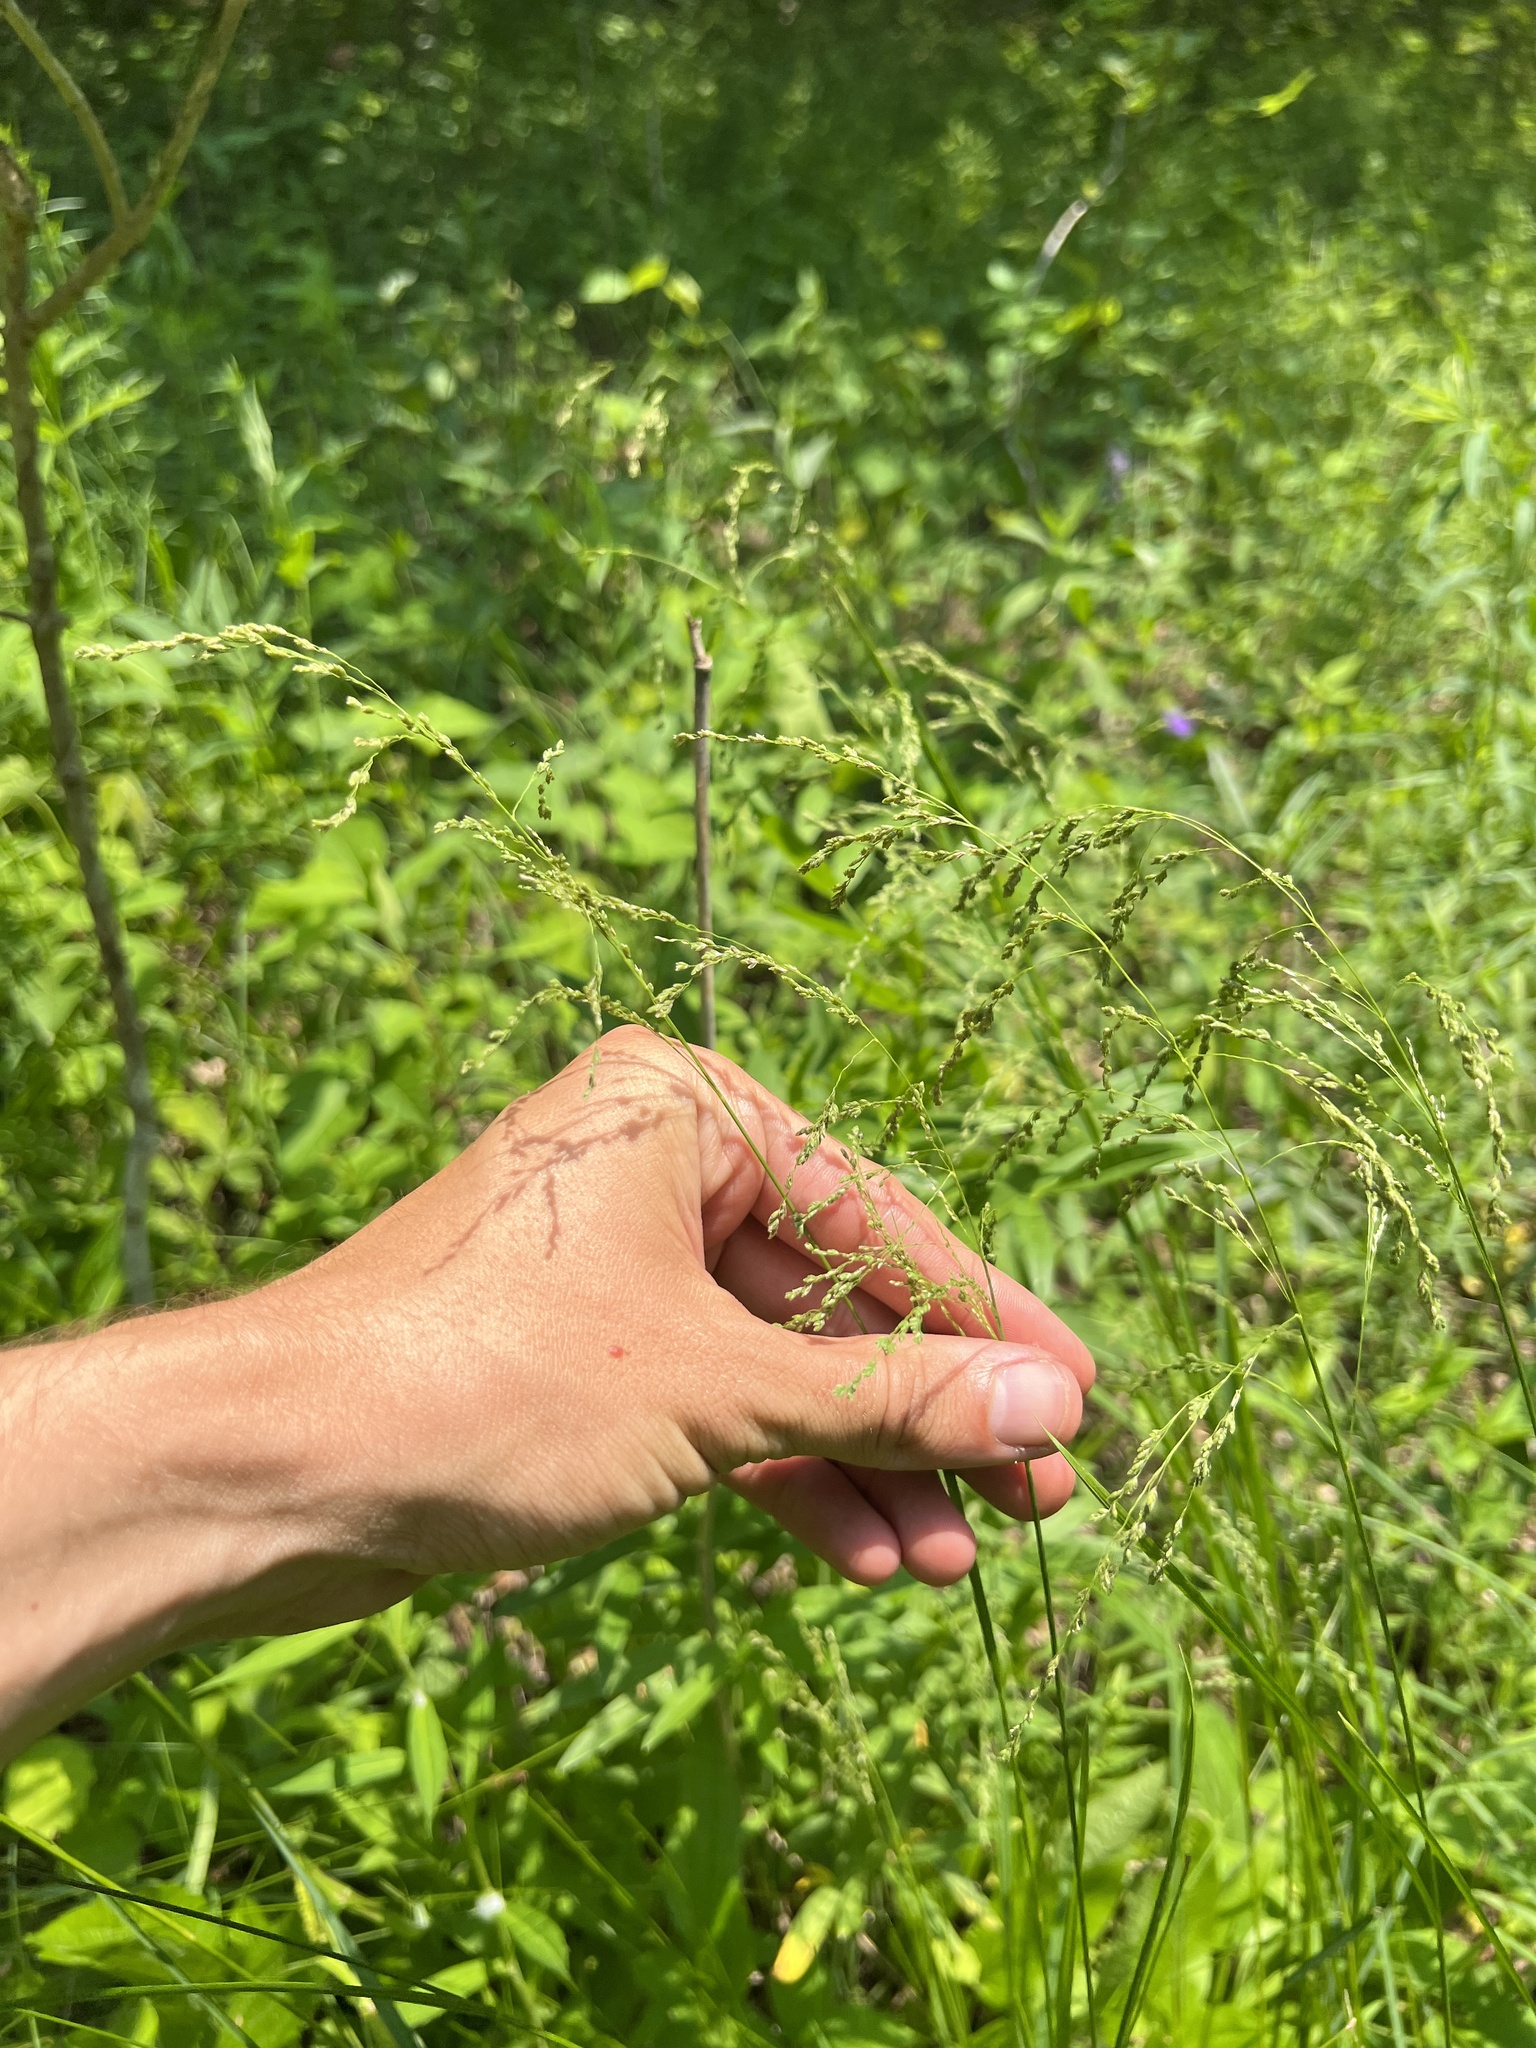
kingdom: Plantae
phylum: Tracheophyta
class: Liliopsida
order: Poales
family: Poaceae
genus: Glyceria
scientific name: Glyceria striata
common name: Fowl manna grass
